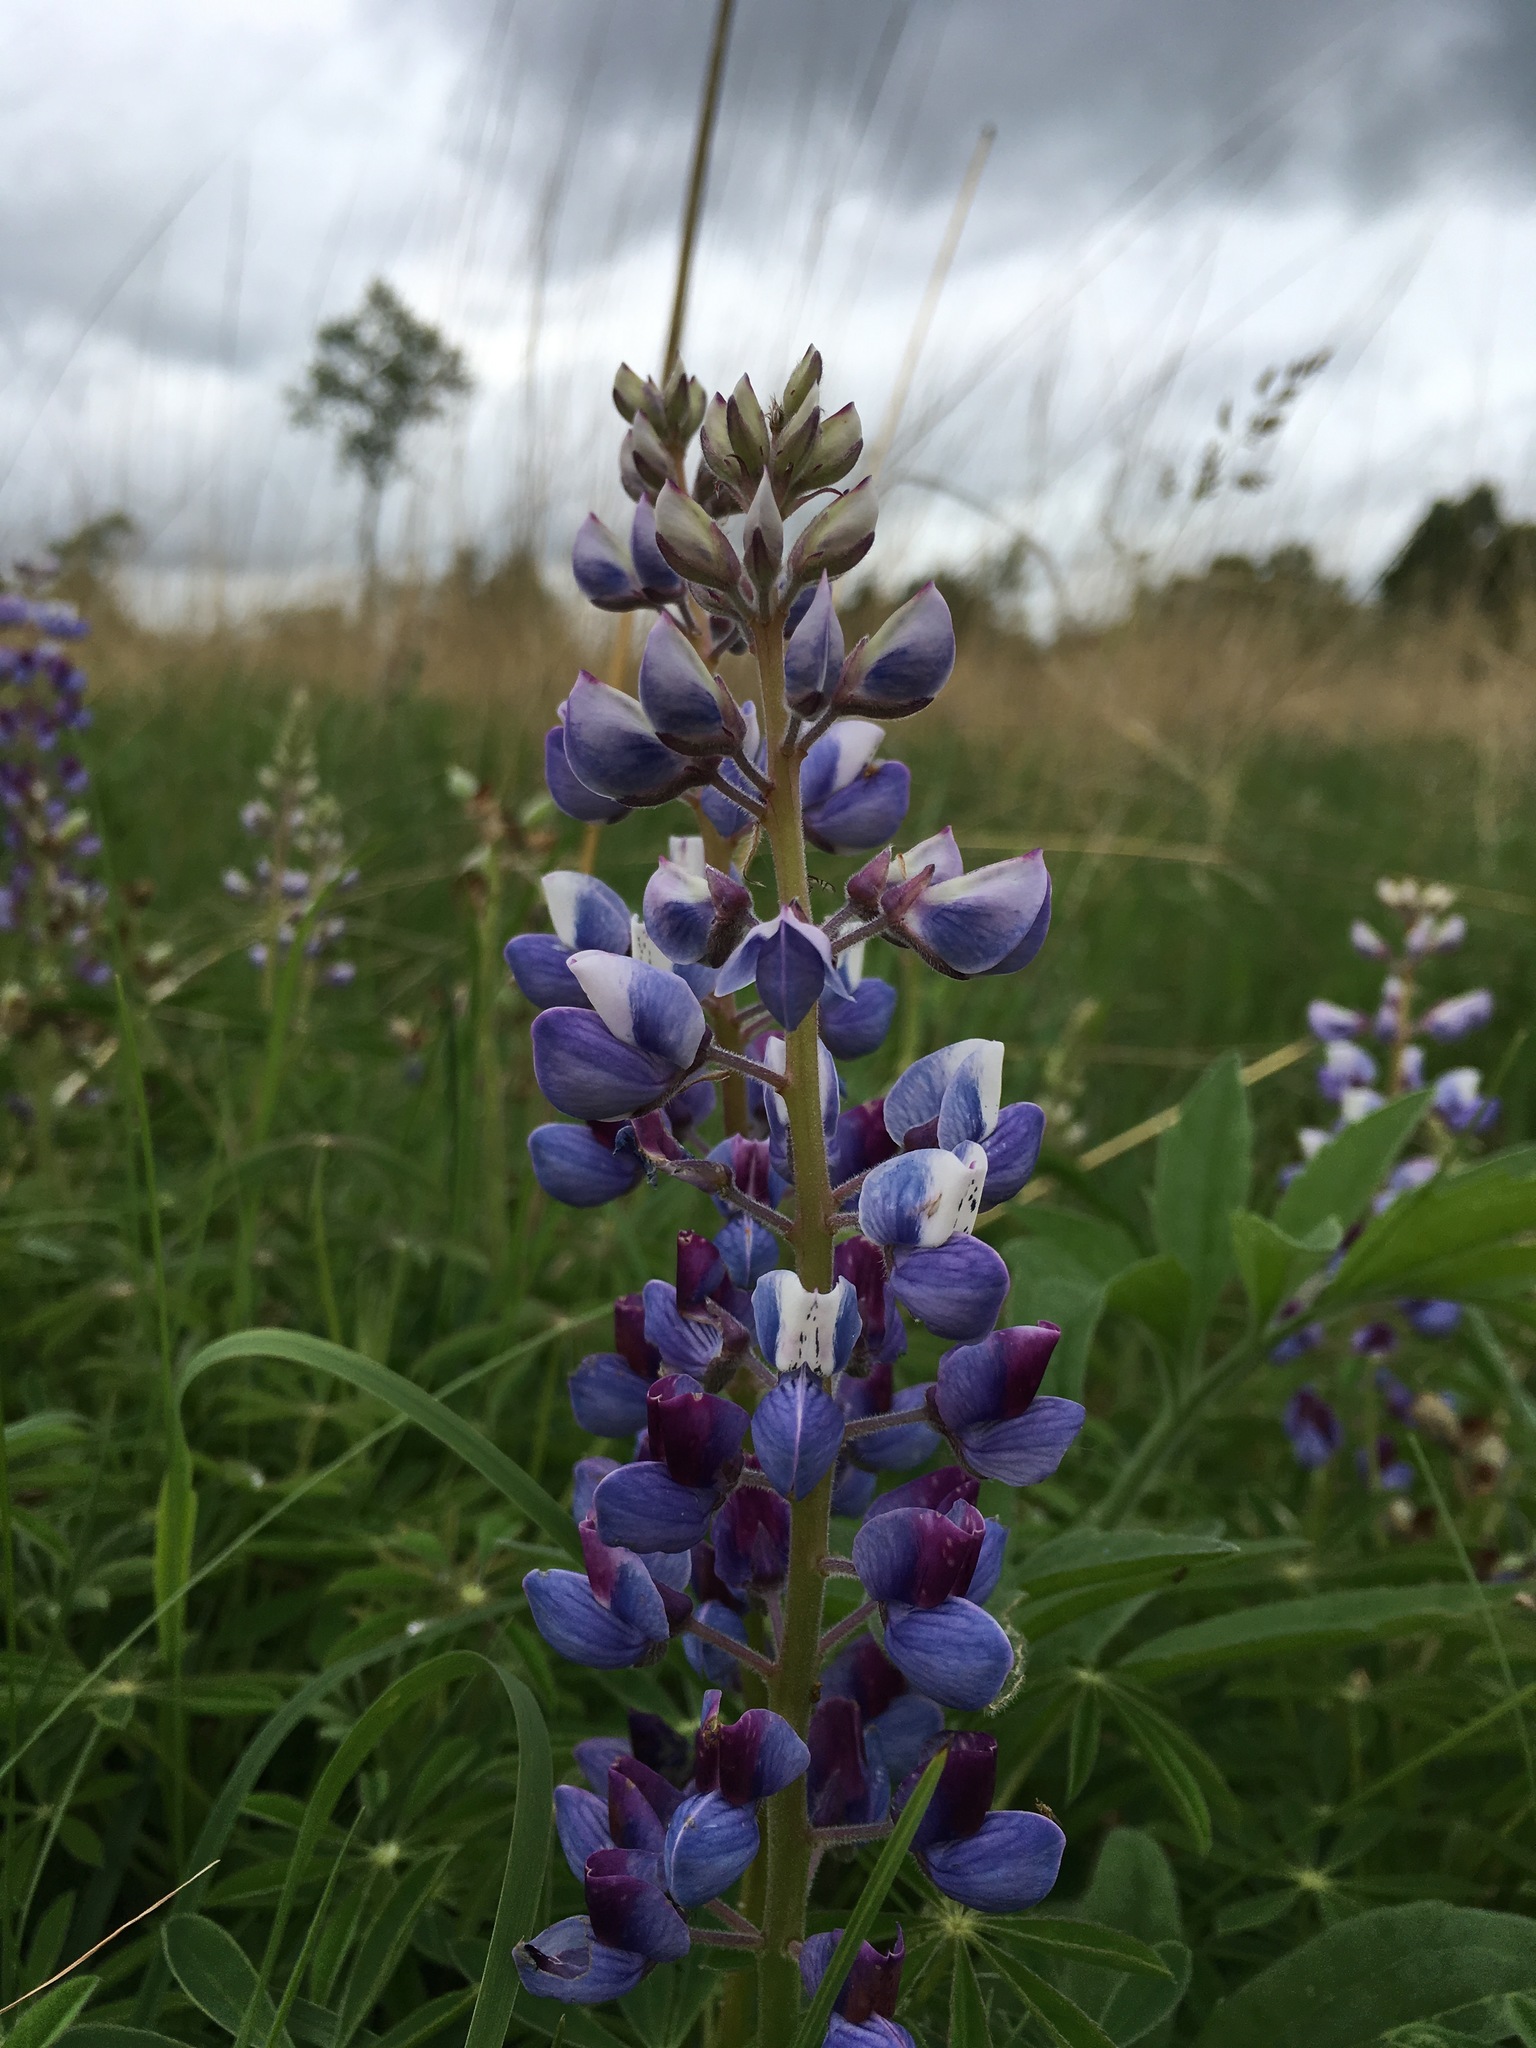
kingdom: Plantae
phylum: Tracheophyta
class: Magnoliopsida
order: Fabales
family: Fabaceae
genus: Lupinus
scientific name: Lupinus perennis
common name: Sundial lupine
